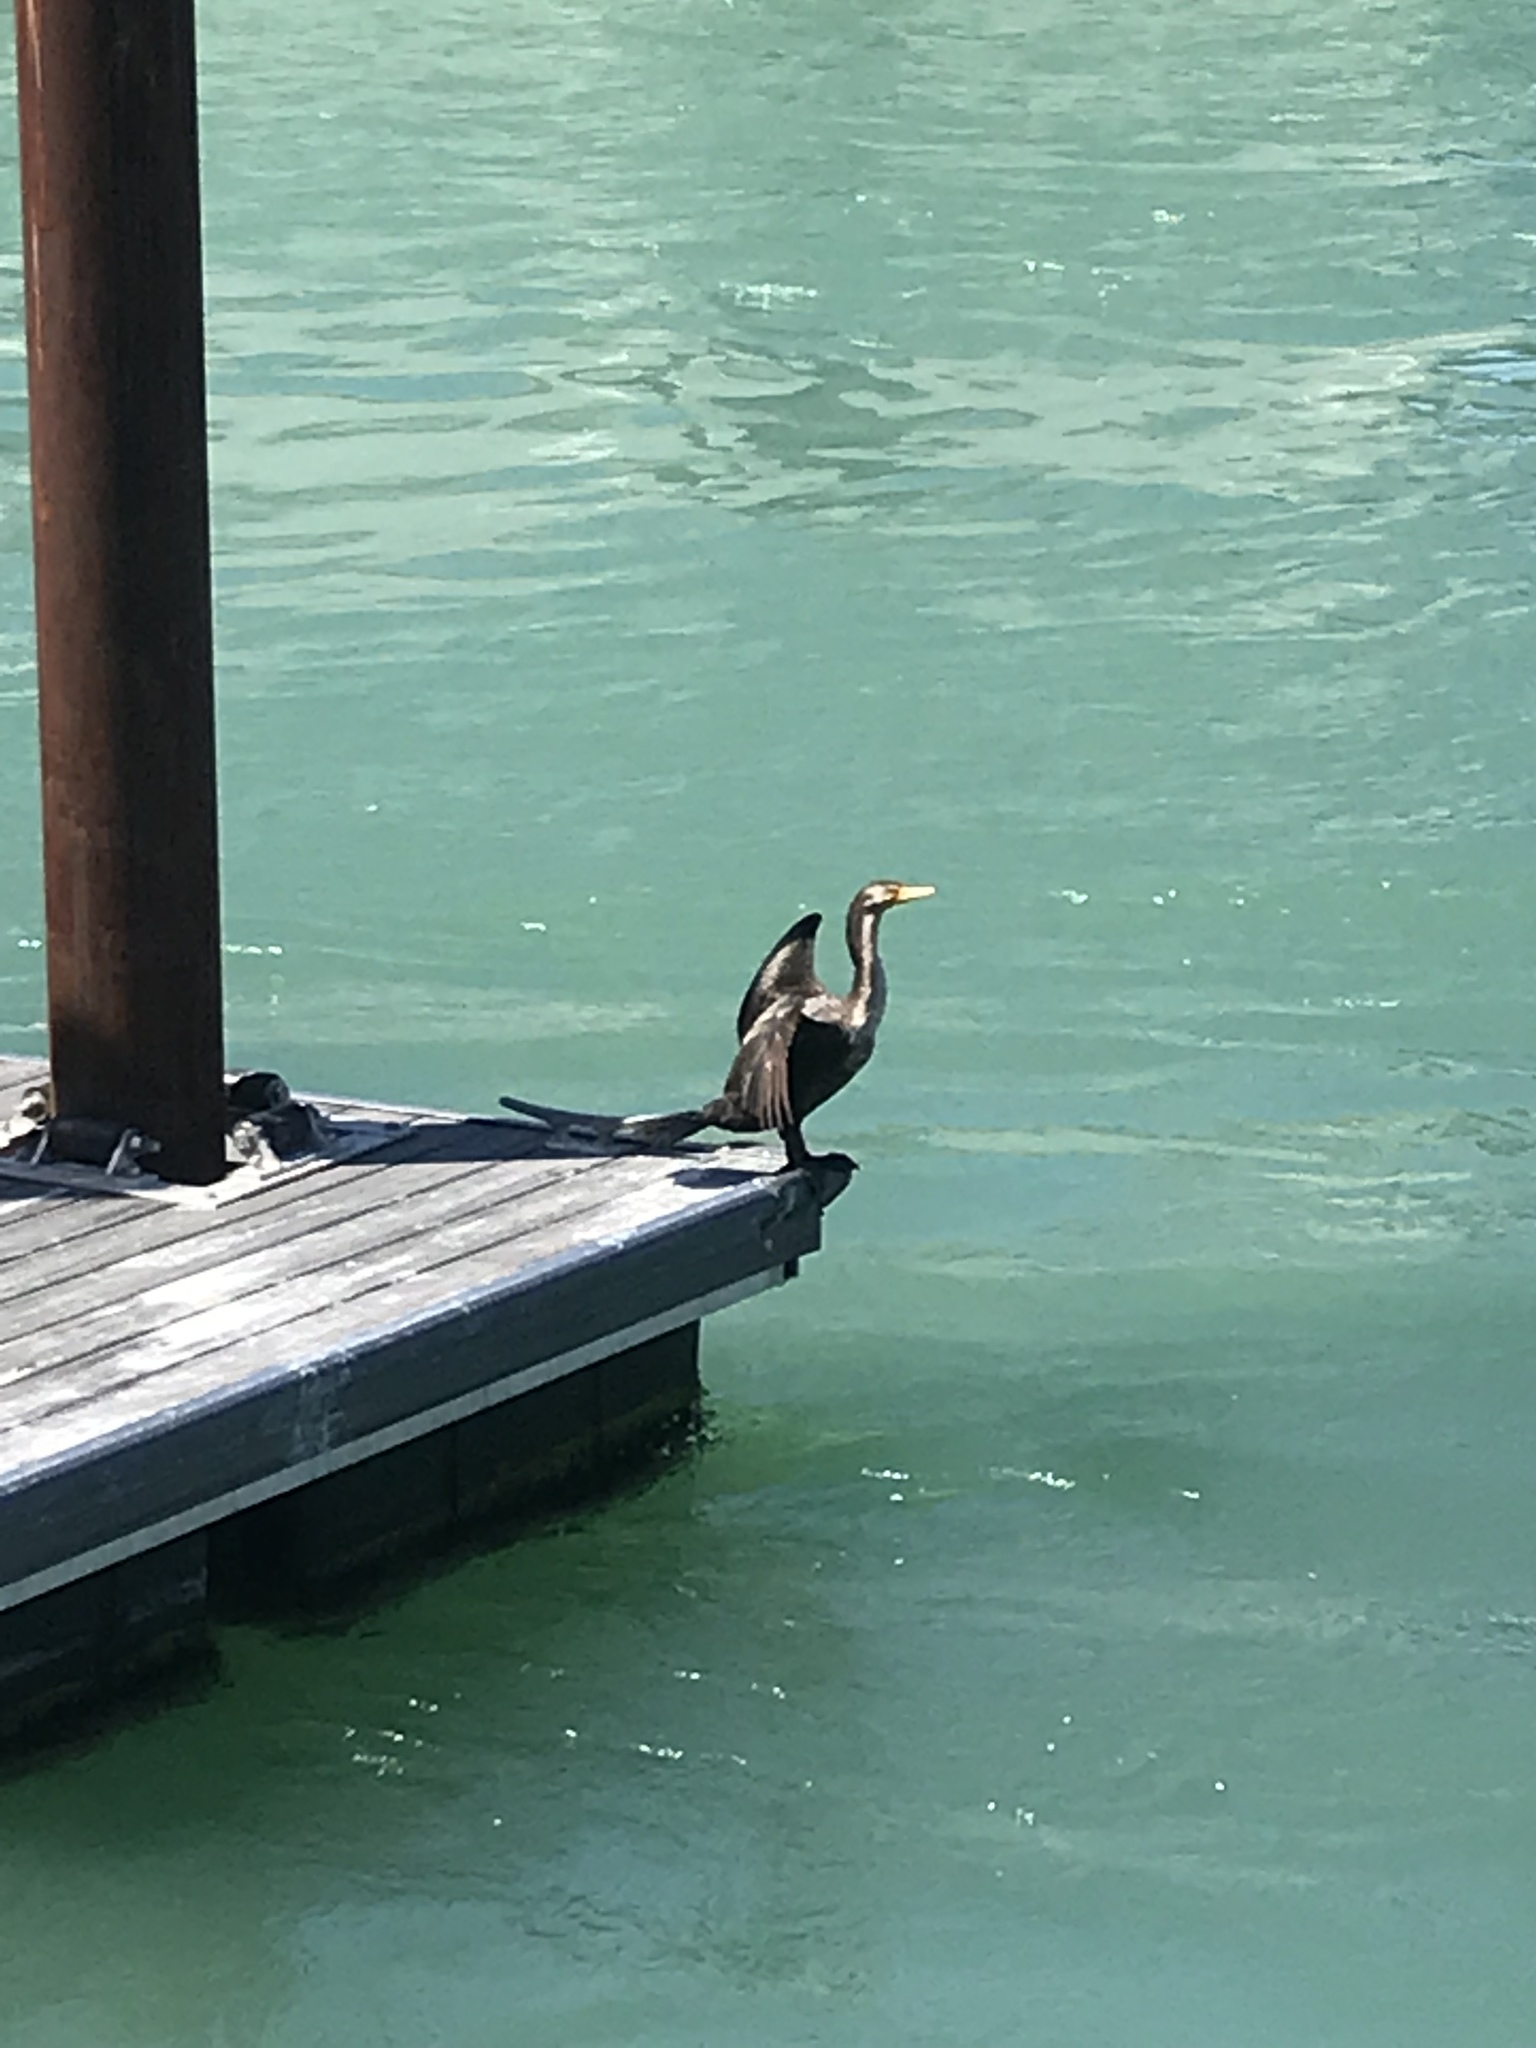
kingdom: Animalia
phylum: Chordata
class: Aves
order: Suliformes
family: Phalacrocoracidae
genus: Phalacrocorax
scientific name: Phalacrocorax auritus
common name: Double-crested cormorant
